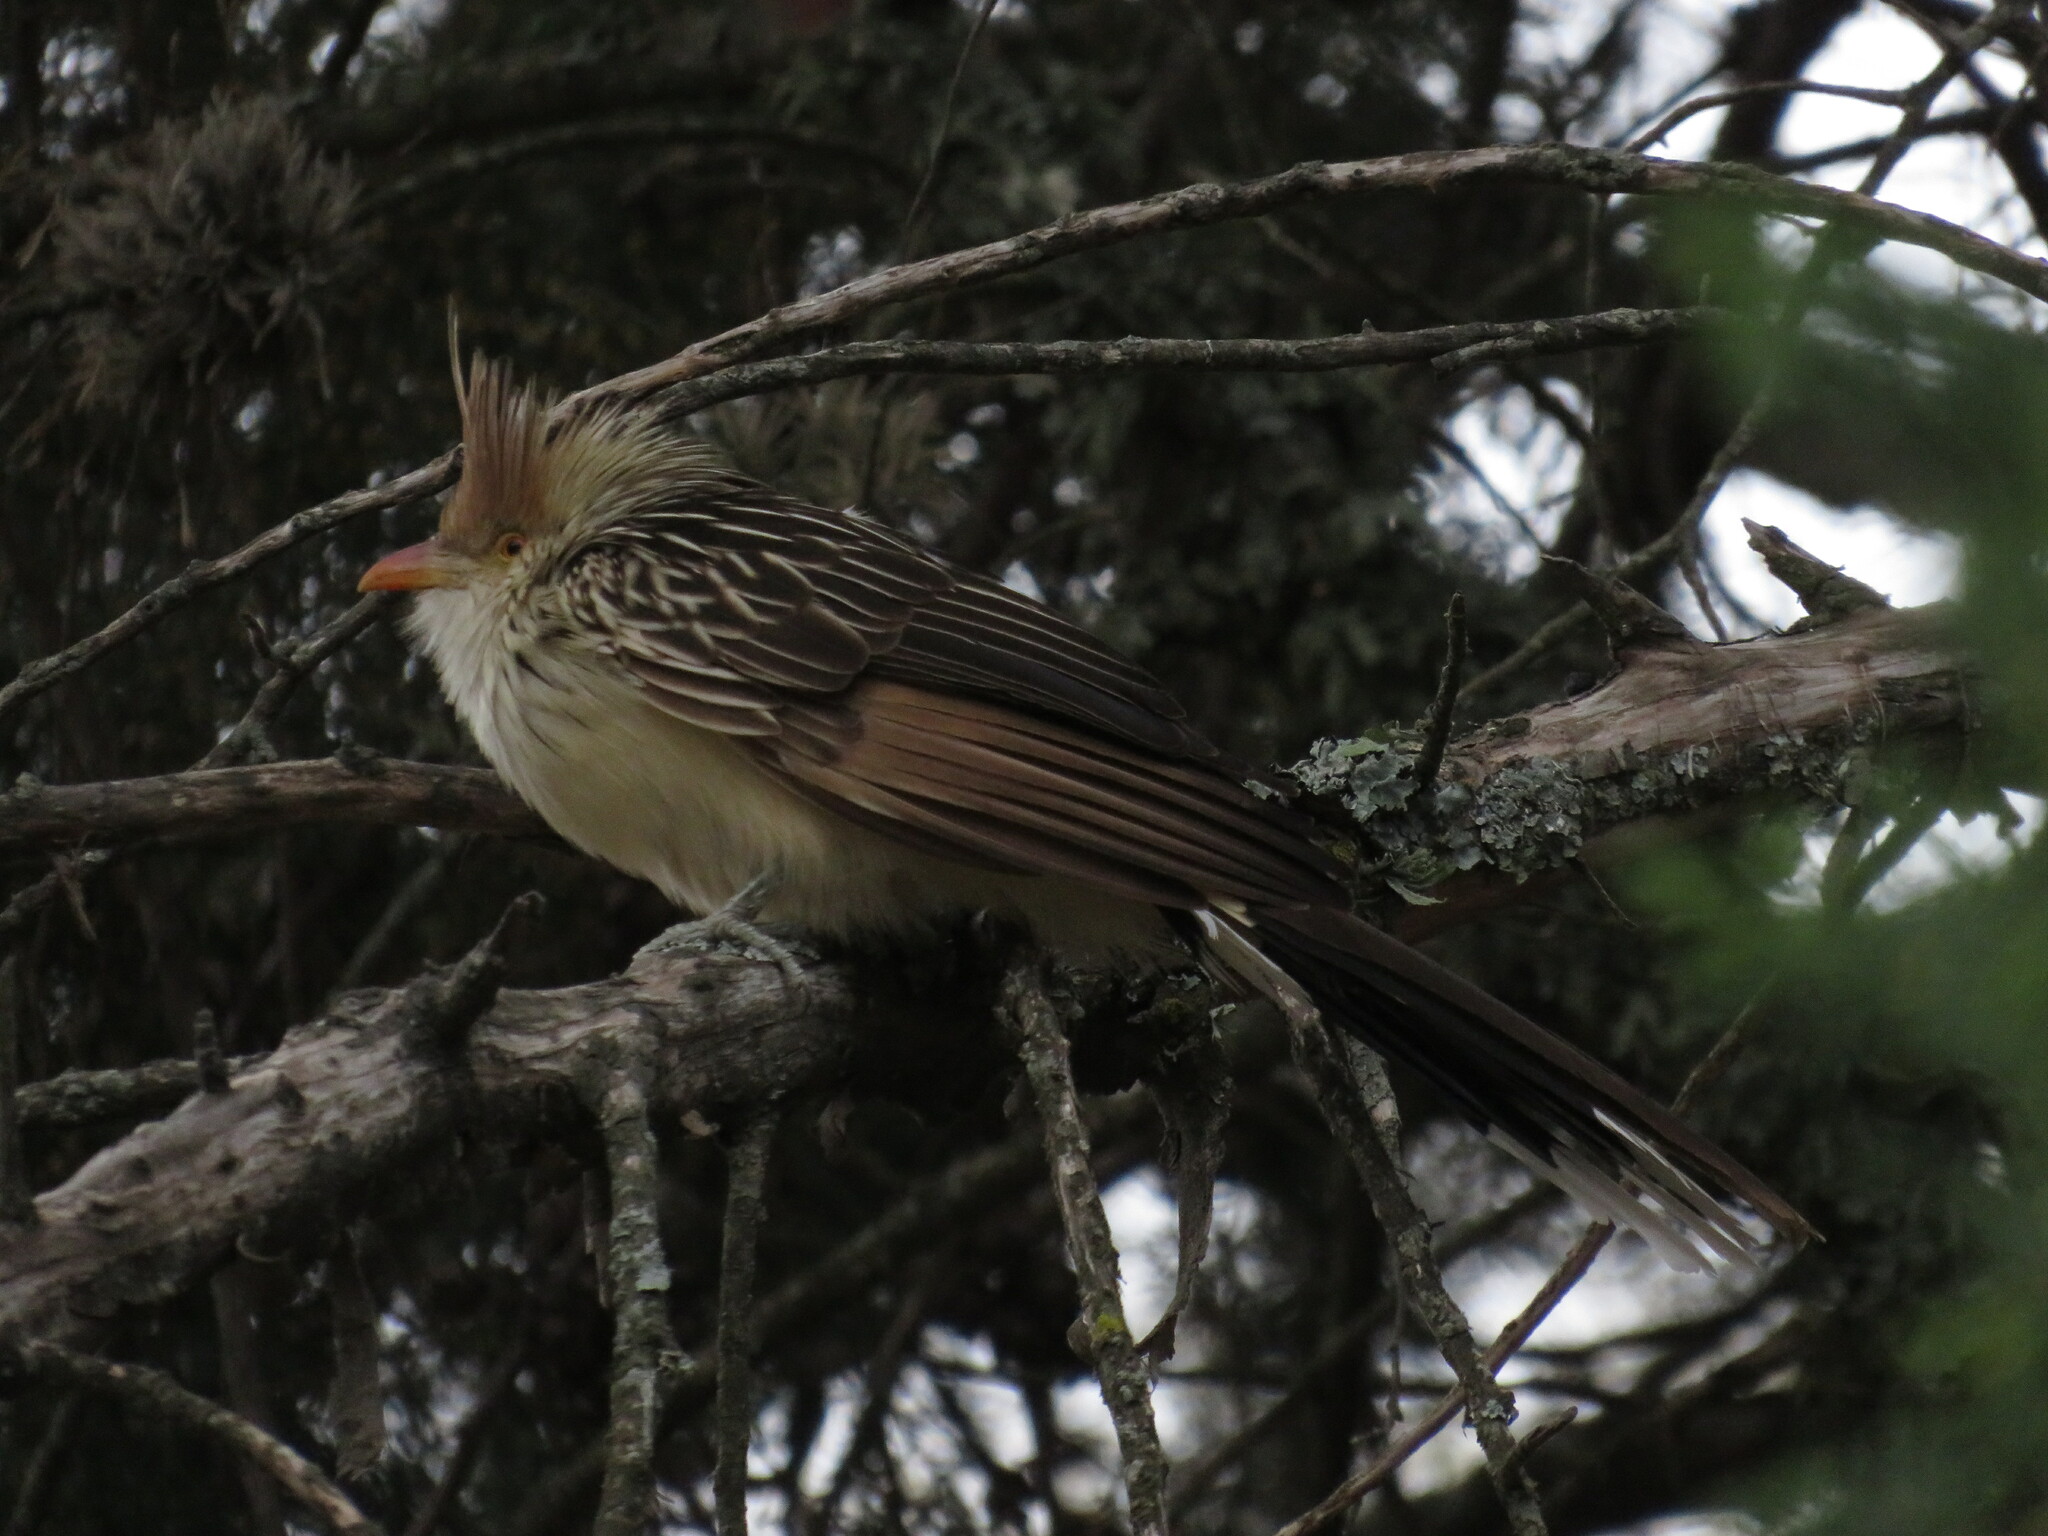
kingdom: Animalia
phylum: Chordata
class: Aves
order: Cuculiformes
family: Cuculidae
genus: Guira
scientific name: Guira guira
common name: Guira cuckoo
